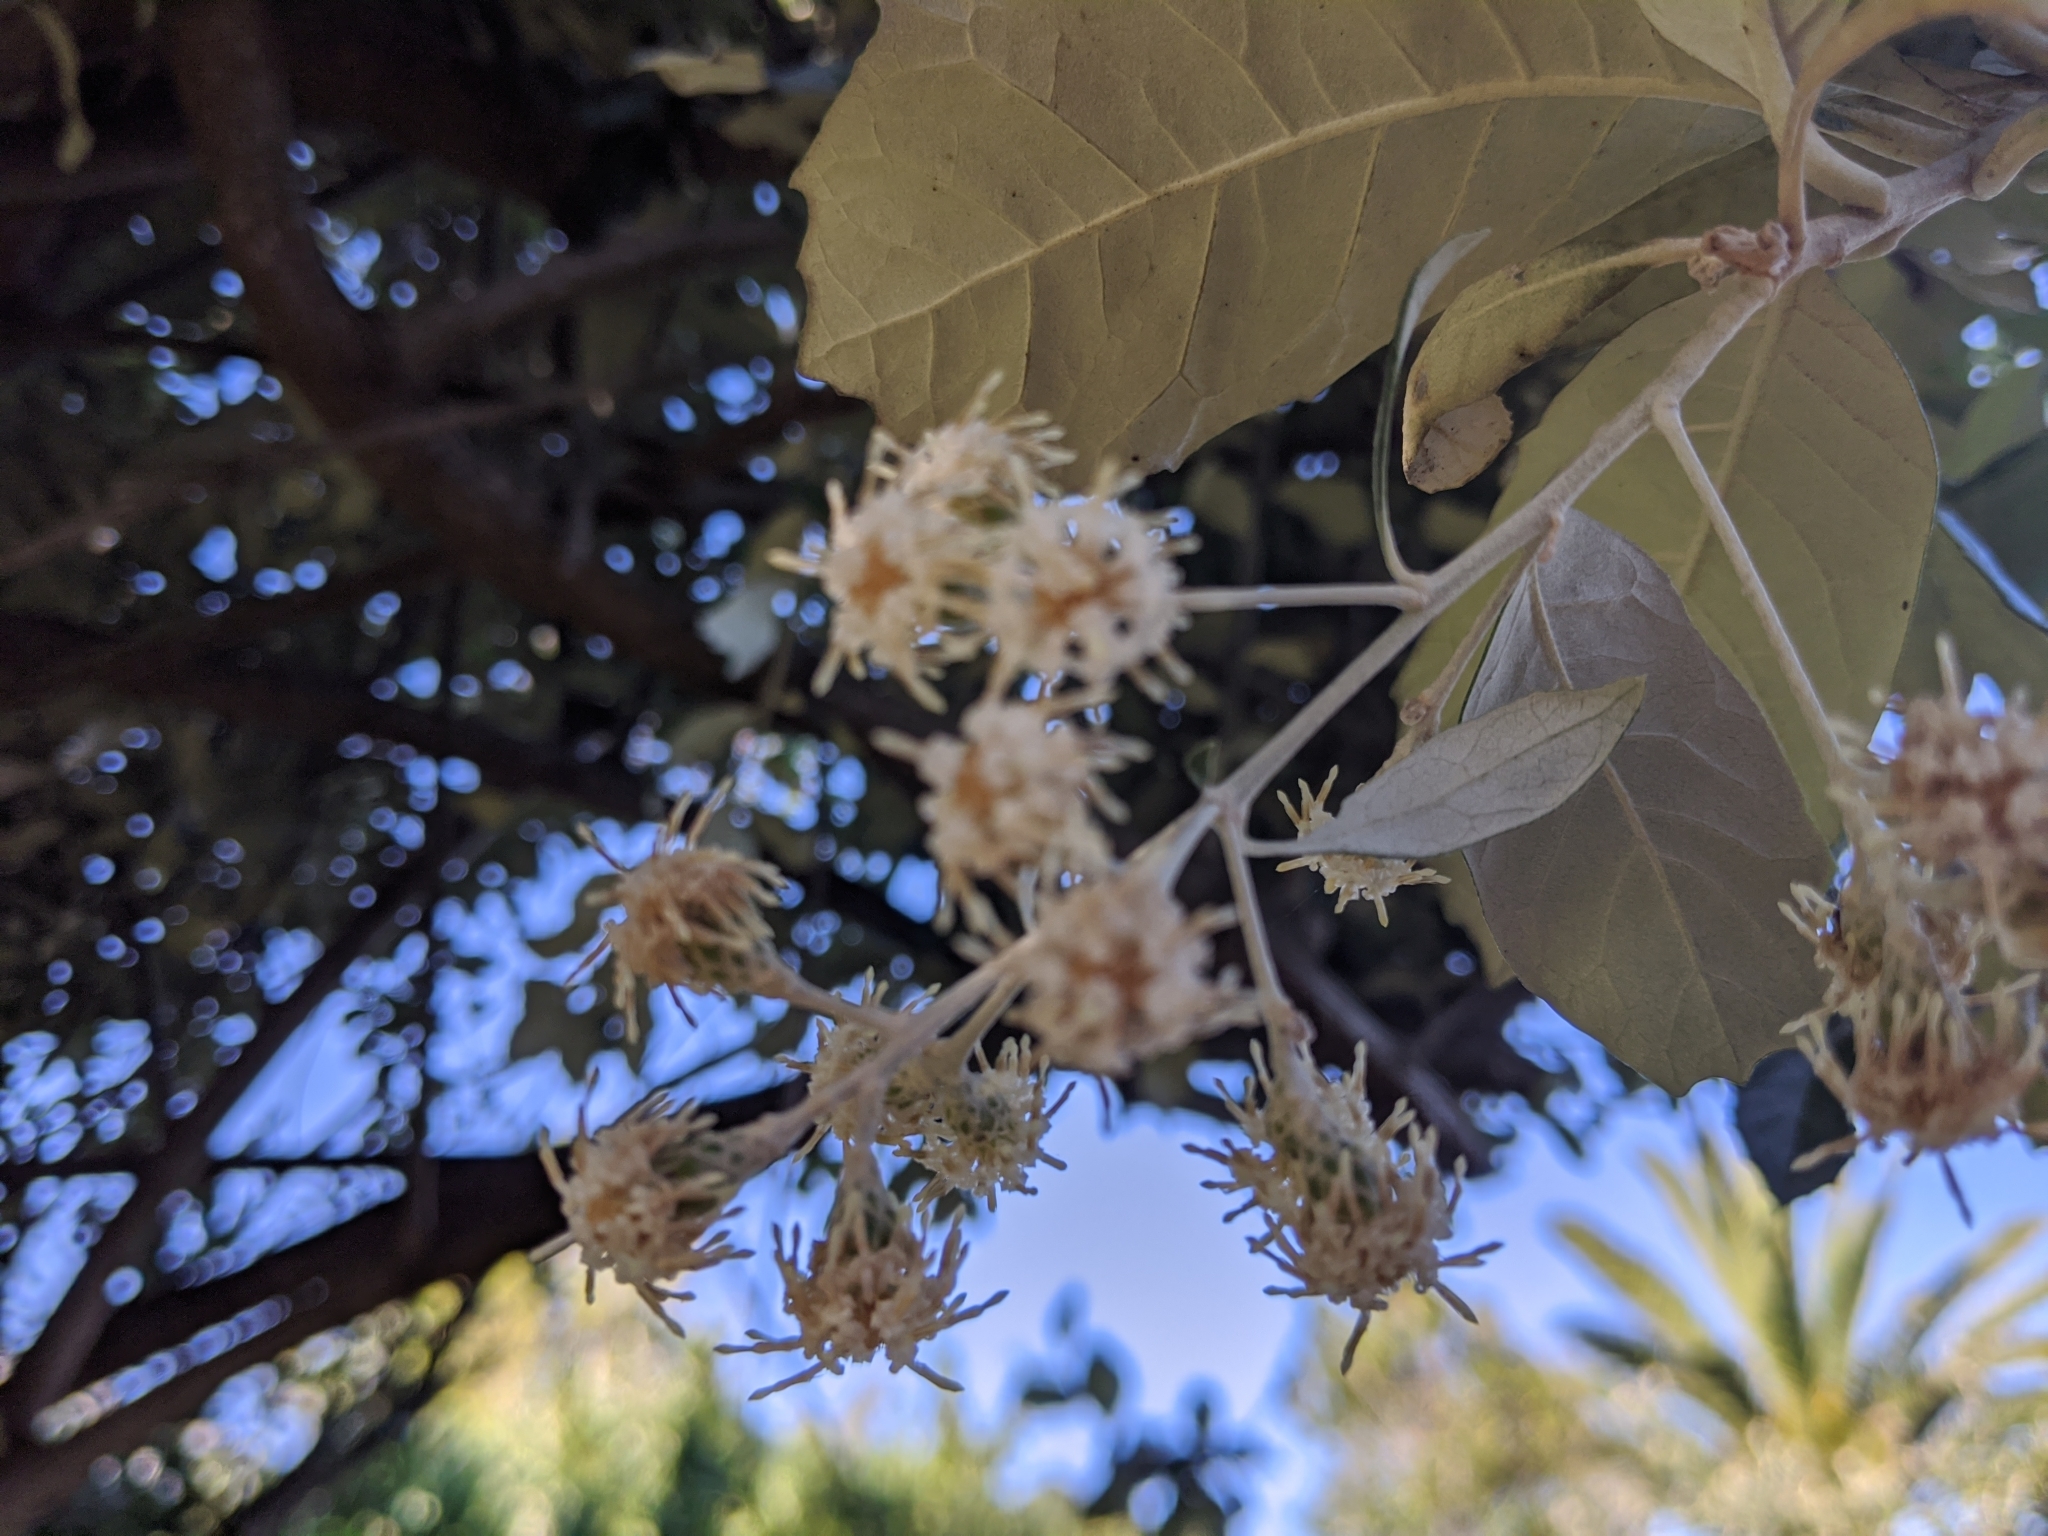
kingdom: Plantae
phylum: Tracheophyta
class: Magnoliopsida
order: Asterales
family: Asteraceae
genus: Tarchonanthus
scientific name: Tarchonanthus littoralis
